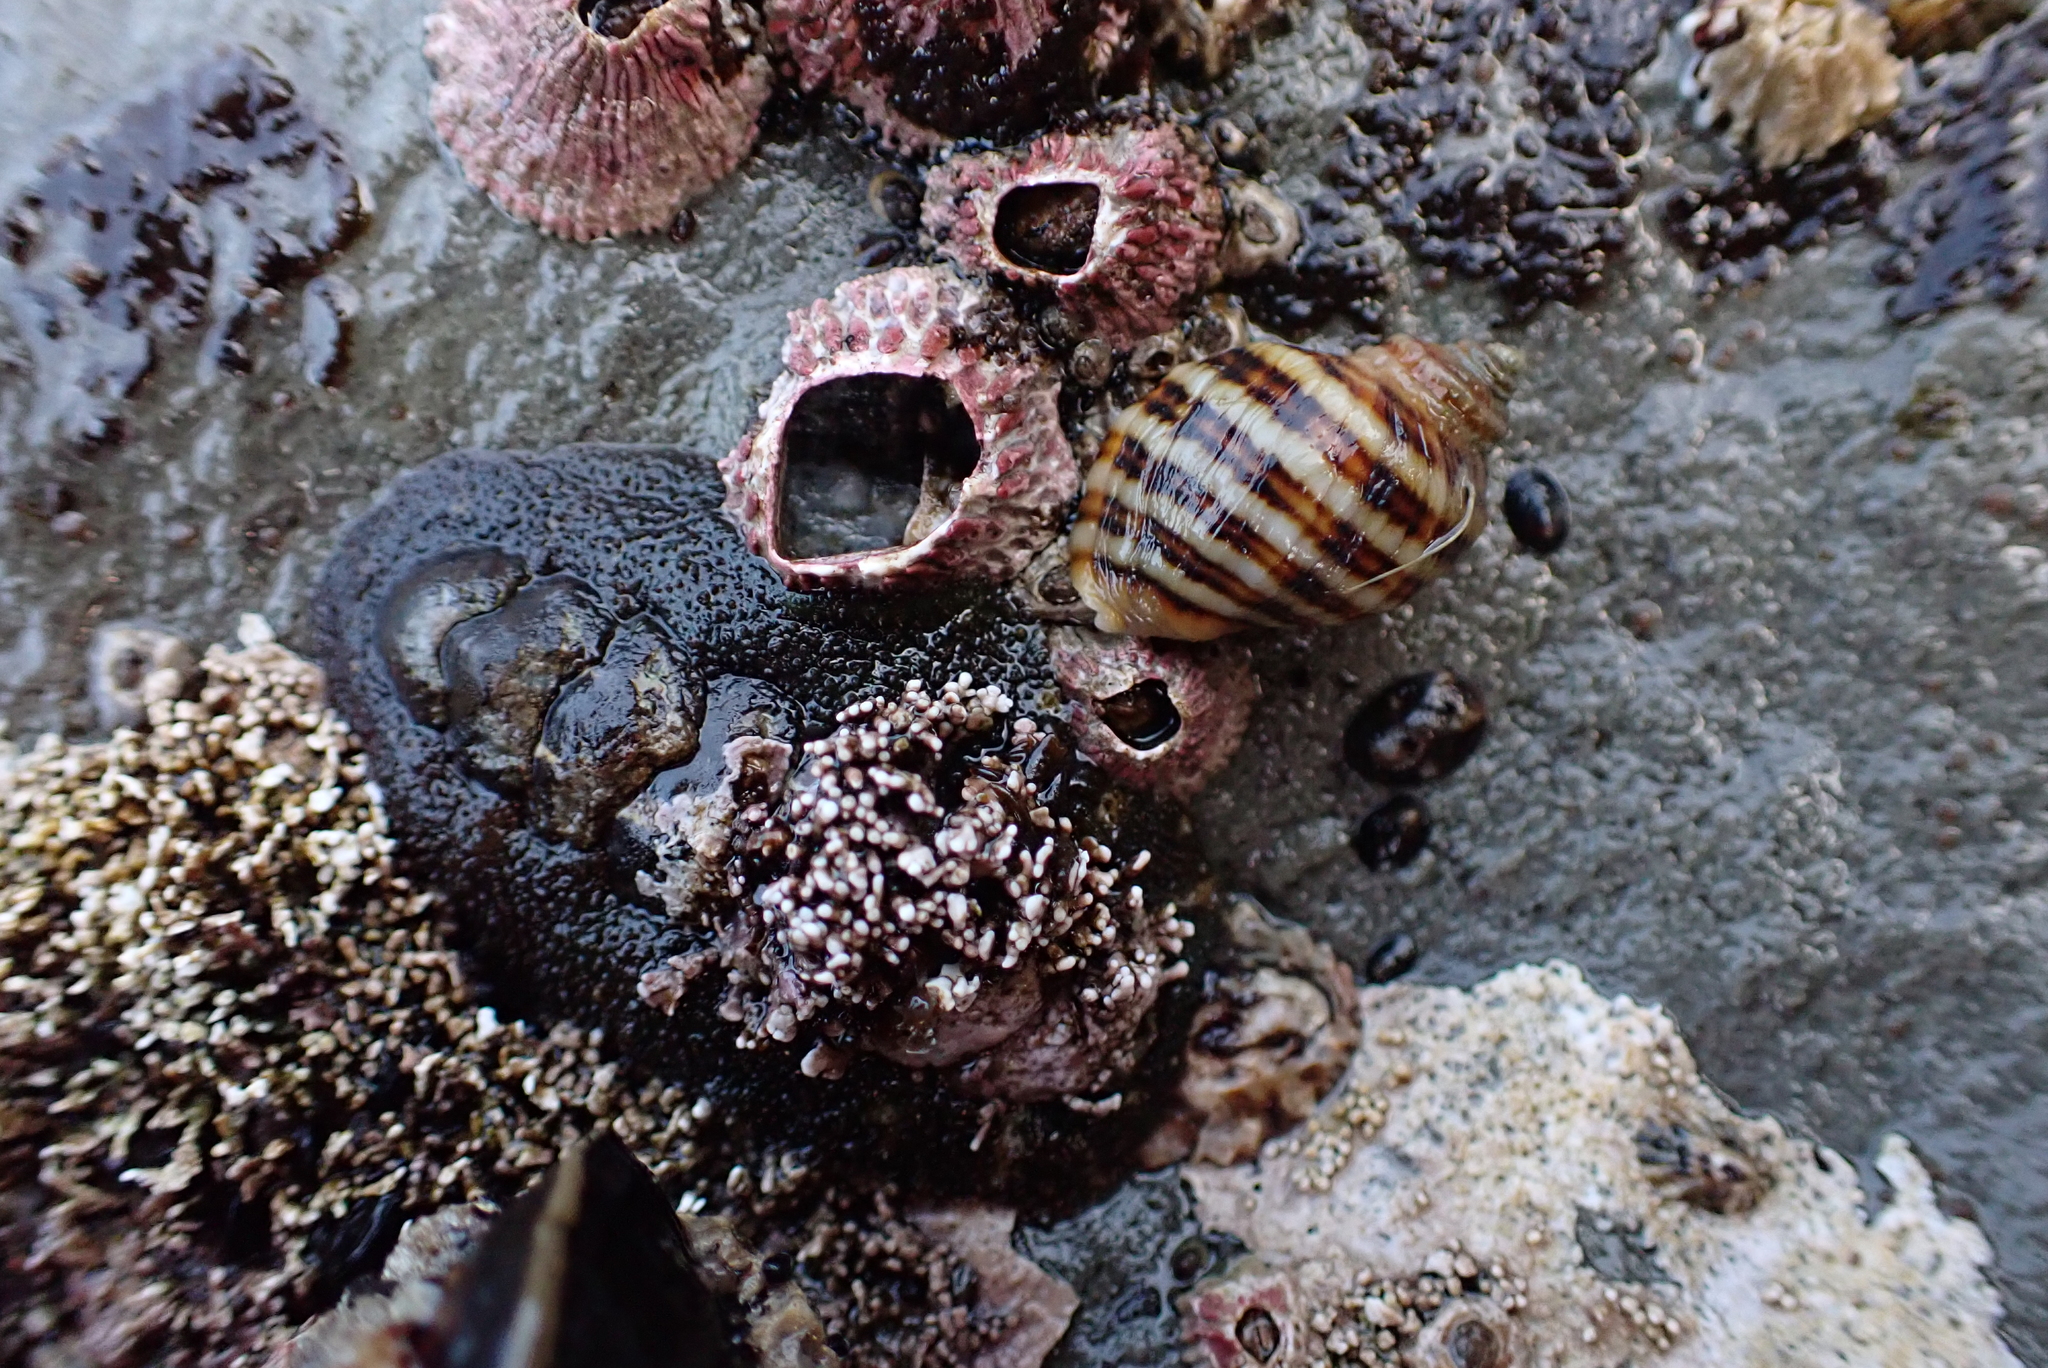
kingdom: Animalia
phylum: Mollusca
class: Polyplacophora
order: Chitonida
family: Tonicellidae
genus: Nuttallina
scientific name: Nuttallina californica
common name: California nuttall chiton
